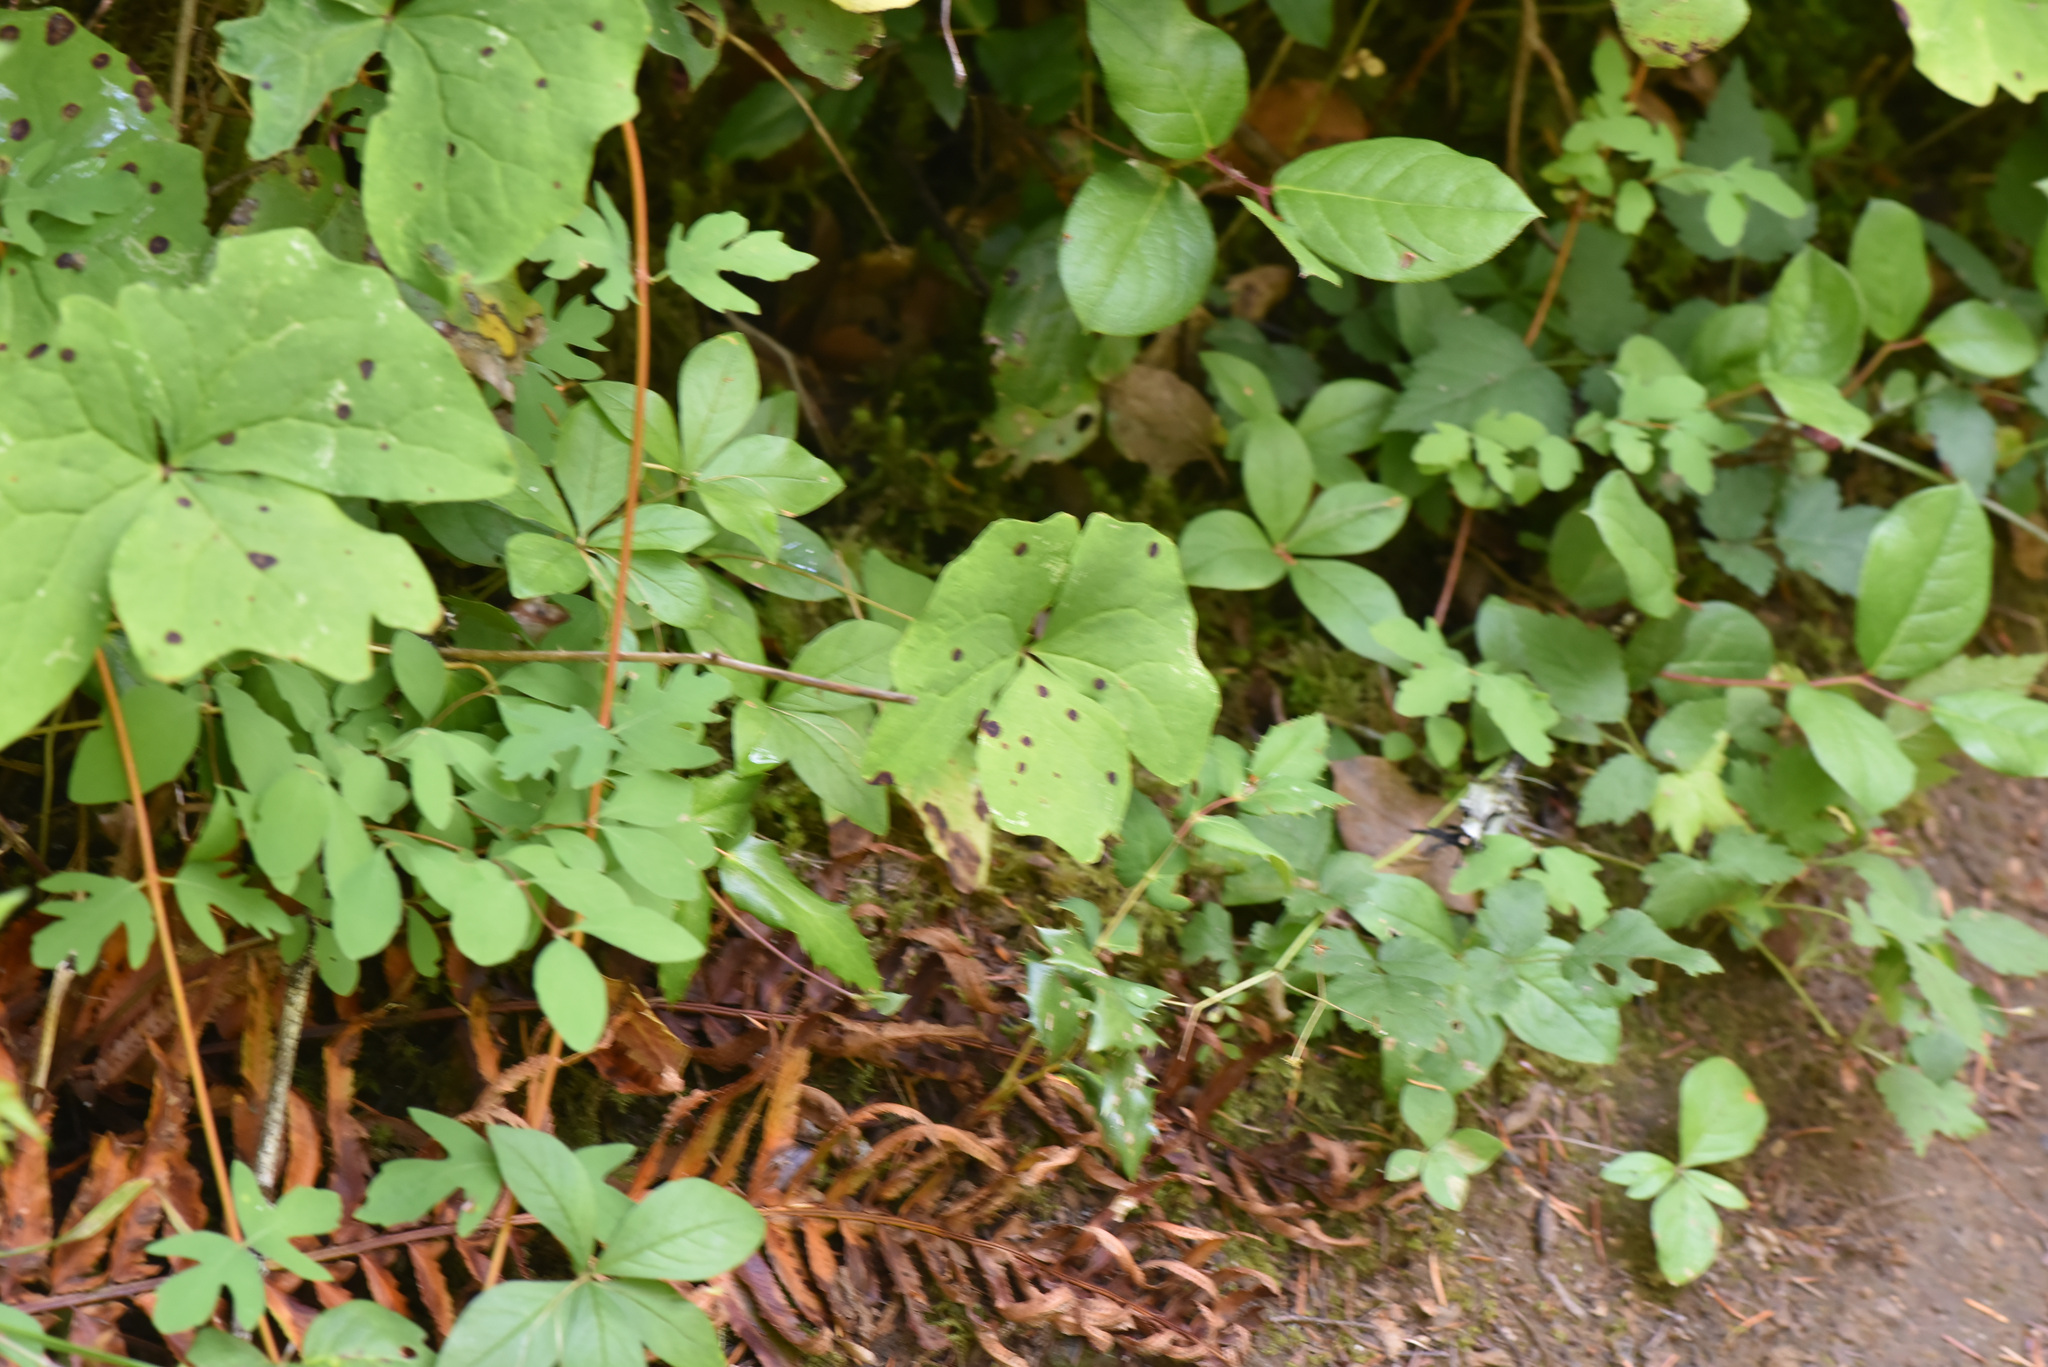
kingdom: Plantae
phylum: Tracheophyta
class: Magnoliopsida
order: Ranunculales
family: Berberidaceae
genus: Achlys
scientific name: Achlys triphylla
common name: Vanilla-leaf
